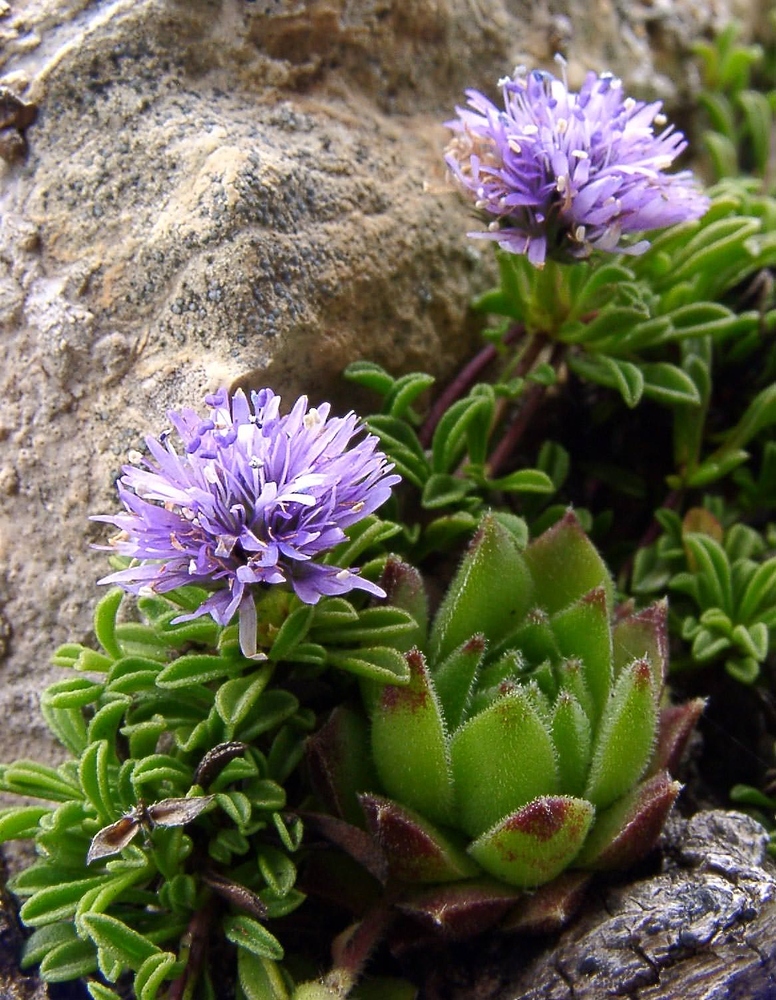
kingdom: Plantae
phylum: Tracheophyta
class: Magnoliopsida
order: Lamiales
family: Plantaginaceae
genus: Globularia
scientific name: Globularia repens
